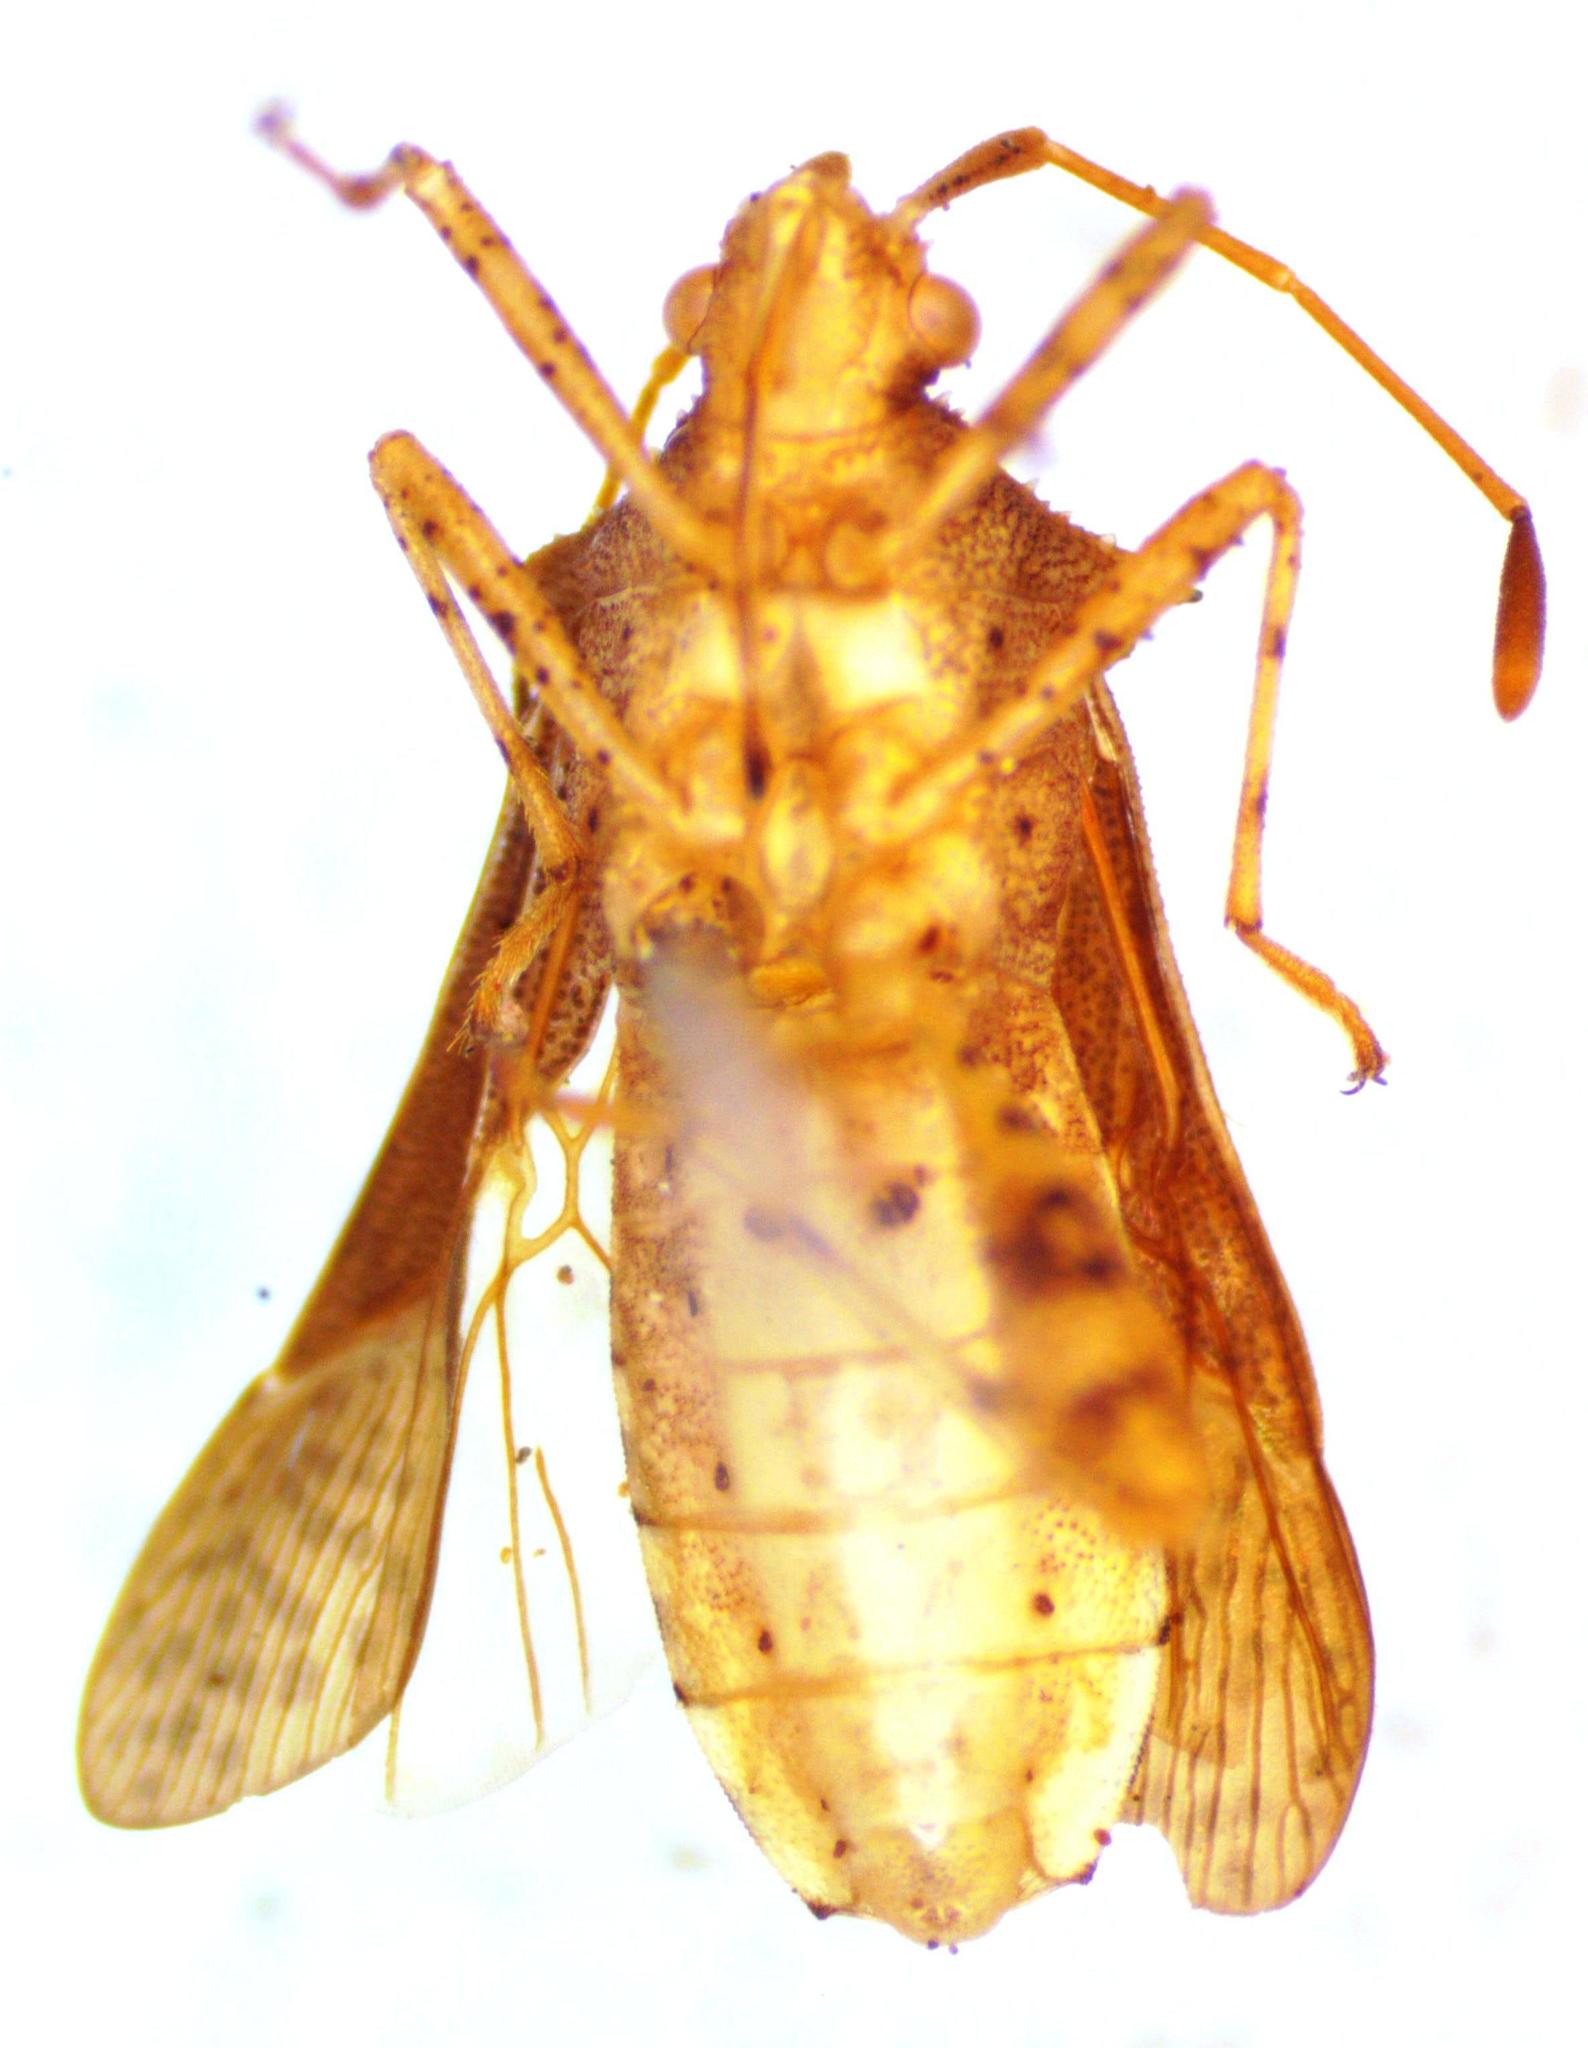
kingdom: Animalia
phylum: Arthropoda
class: Insecta
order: Hemiptera
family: Coreidae
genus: Zicca
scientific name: Zicca taeniola
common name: Leaf-footed bug
